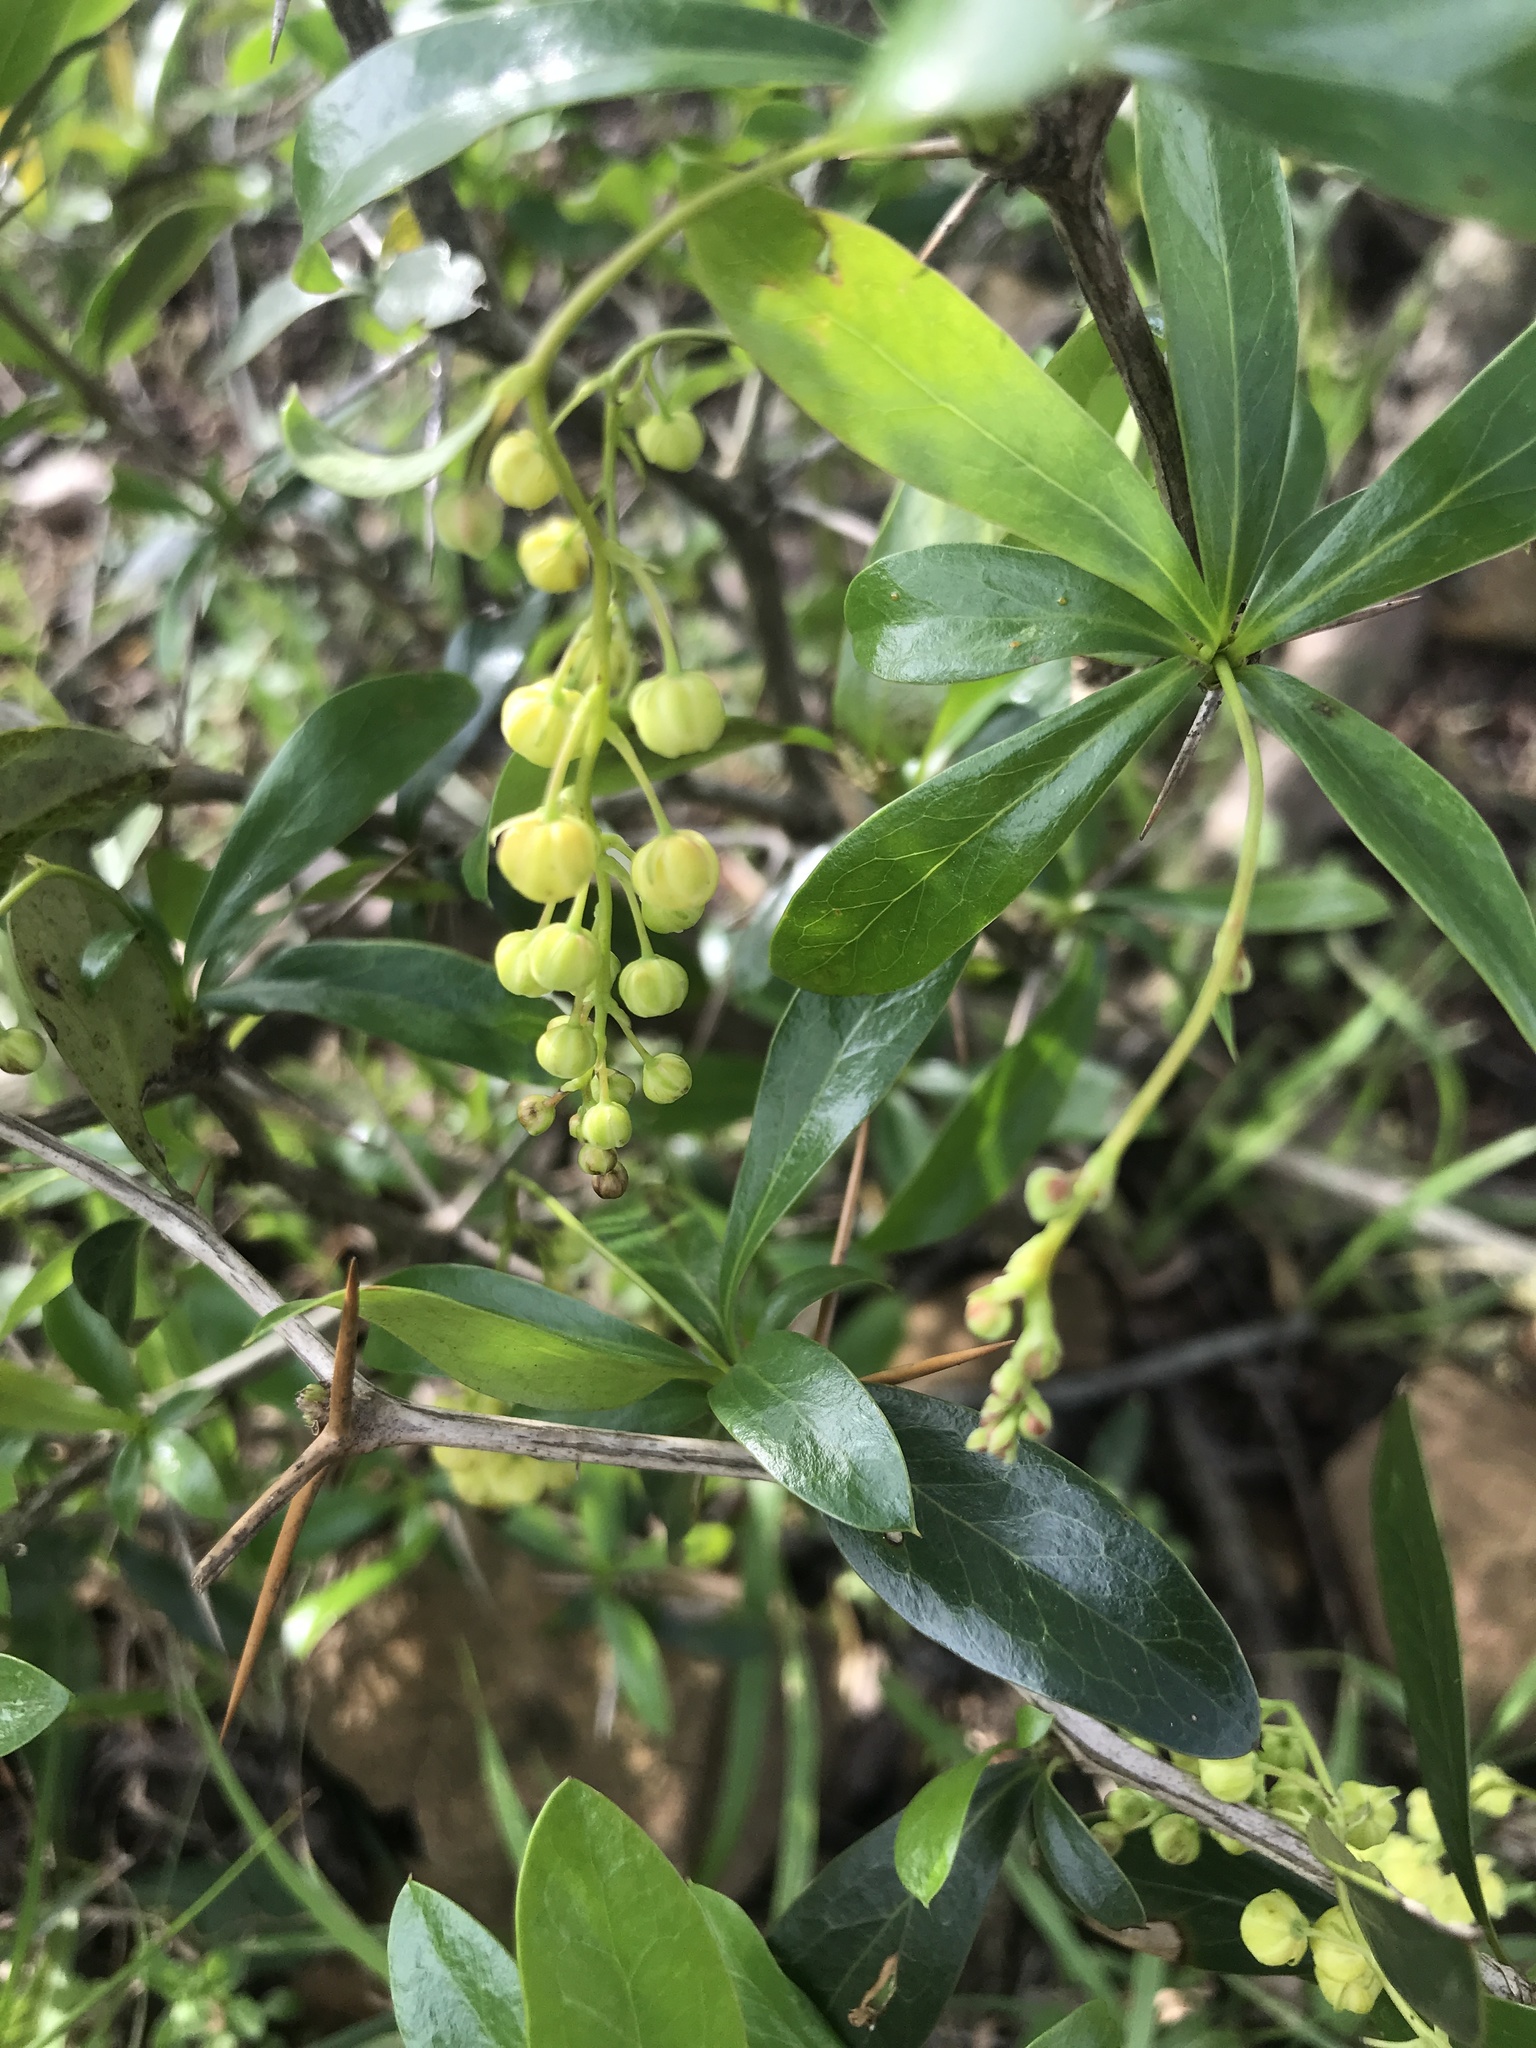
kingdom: Plantae
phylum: Tracheophyta
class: Magnoliopsida
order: Ranunculales
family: Berberidaceae
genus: Berberis
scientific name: Berberis laurina
